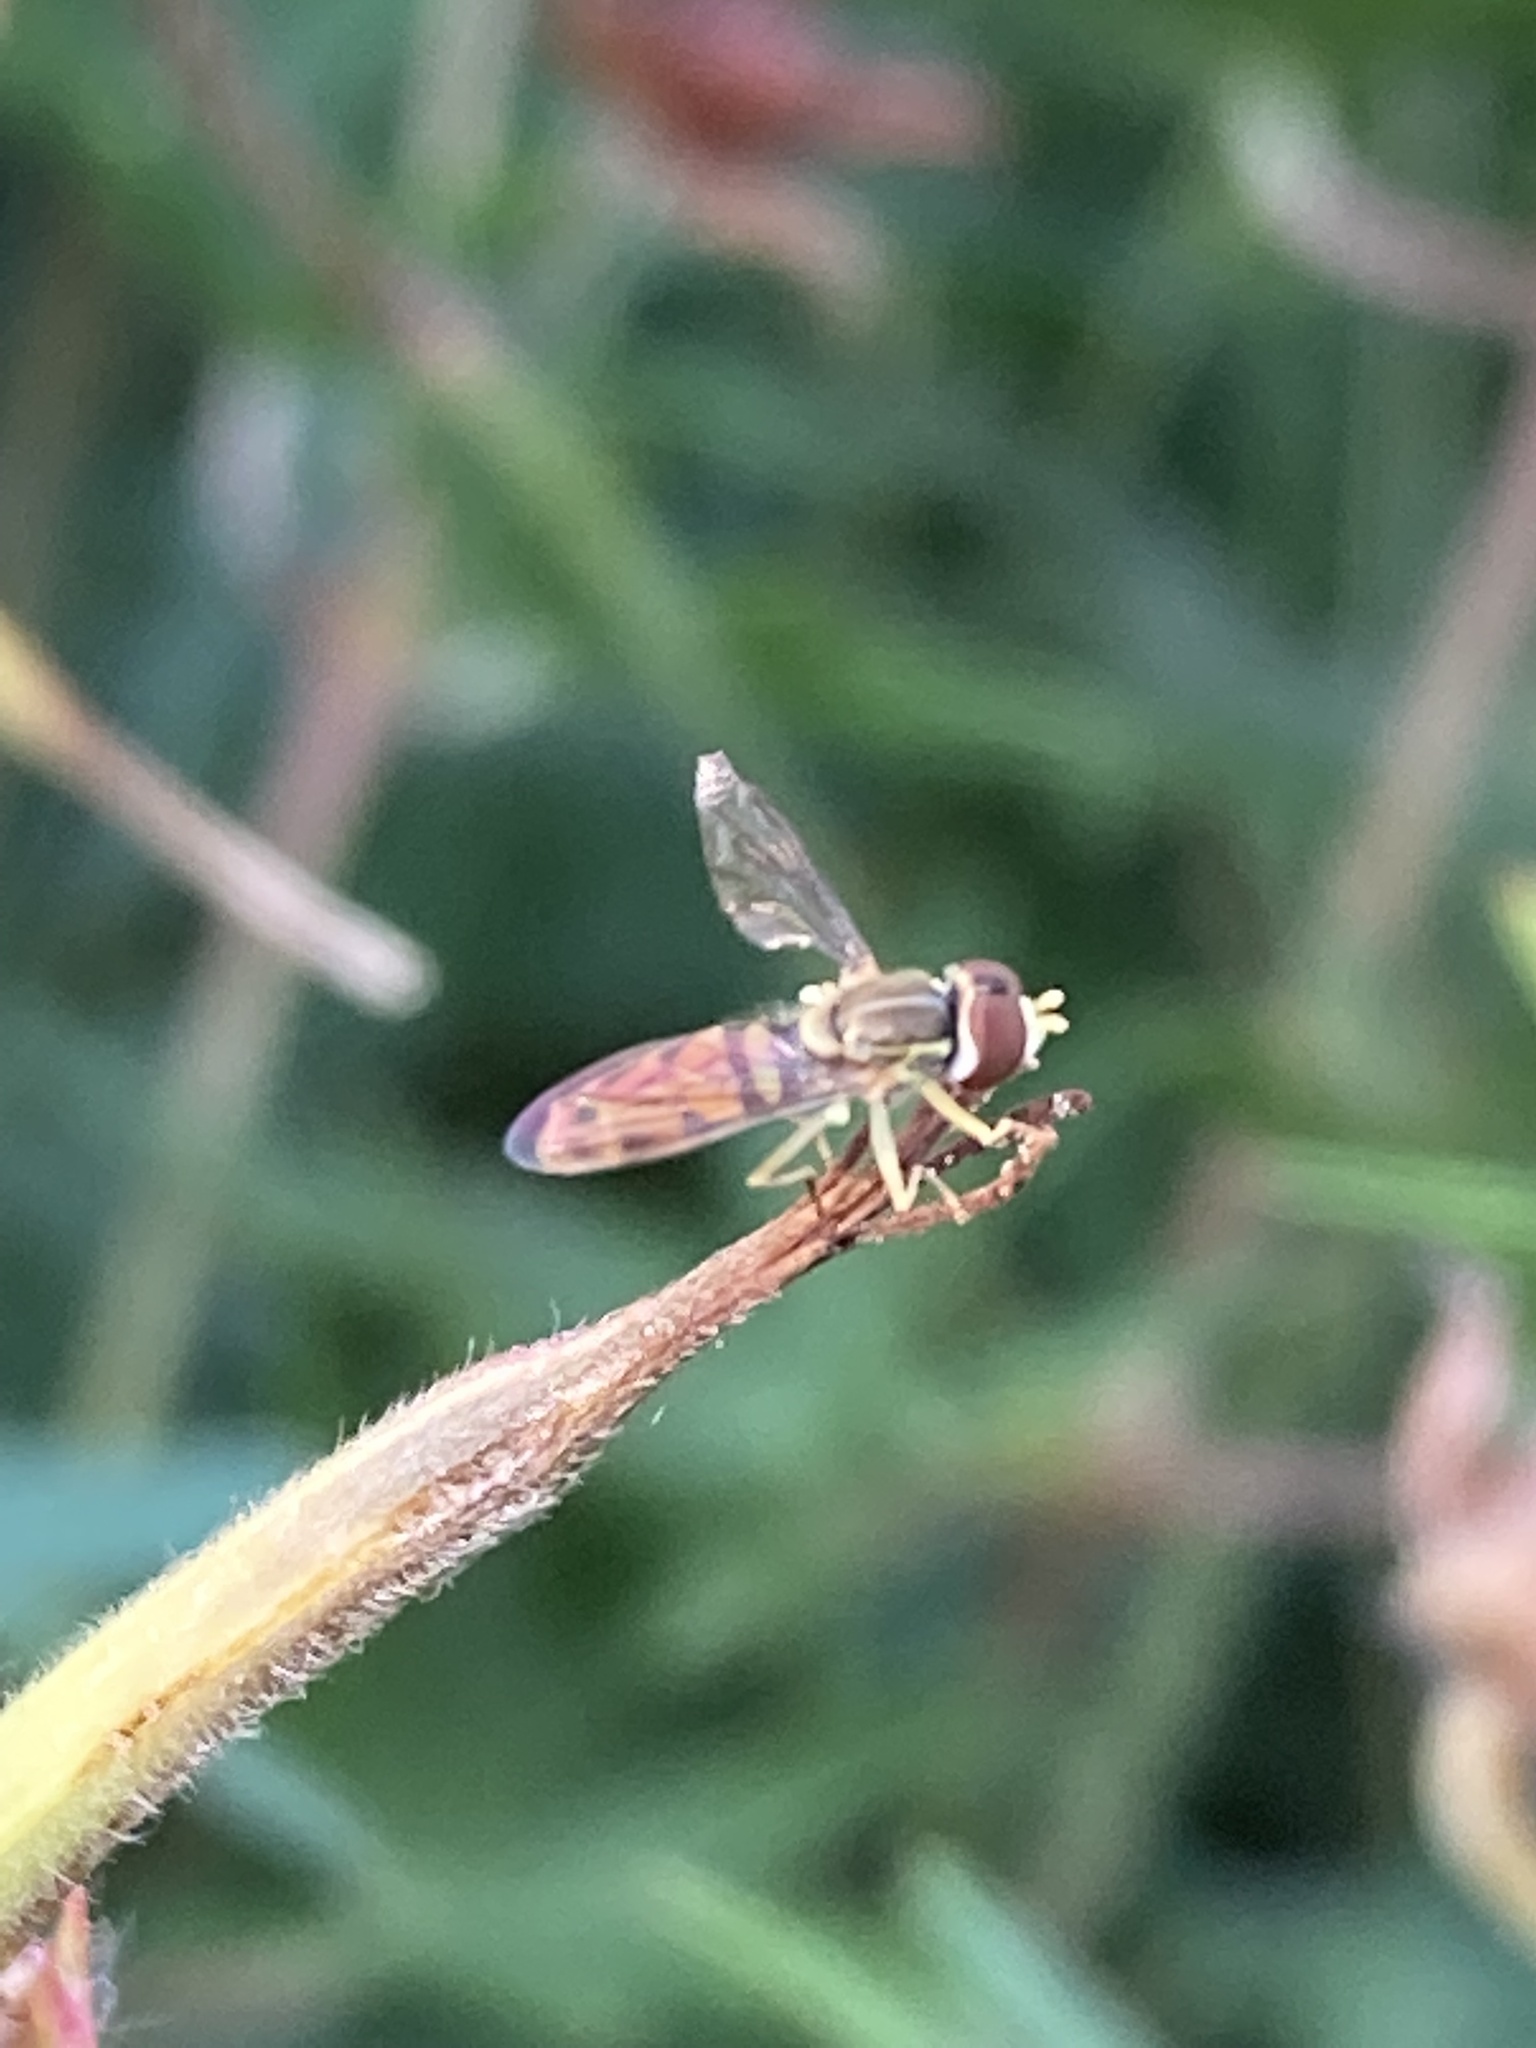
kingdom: Animalia
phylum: Arthropoda
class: Insecta
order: Diptera
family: Syrphidae
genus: Toxomerus
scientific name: Toxomerus marginatus
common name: Syrphid fly
